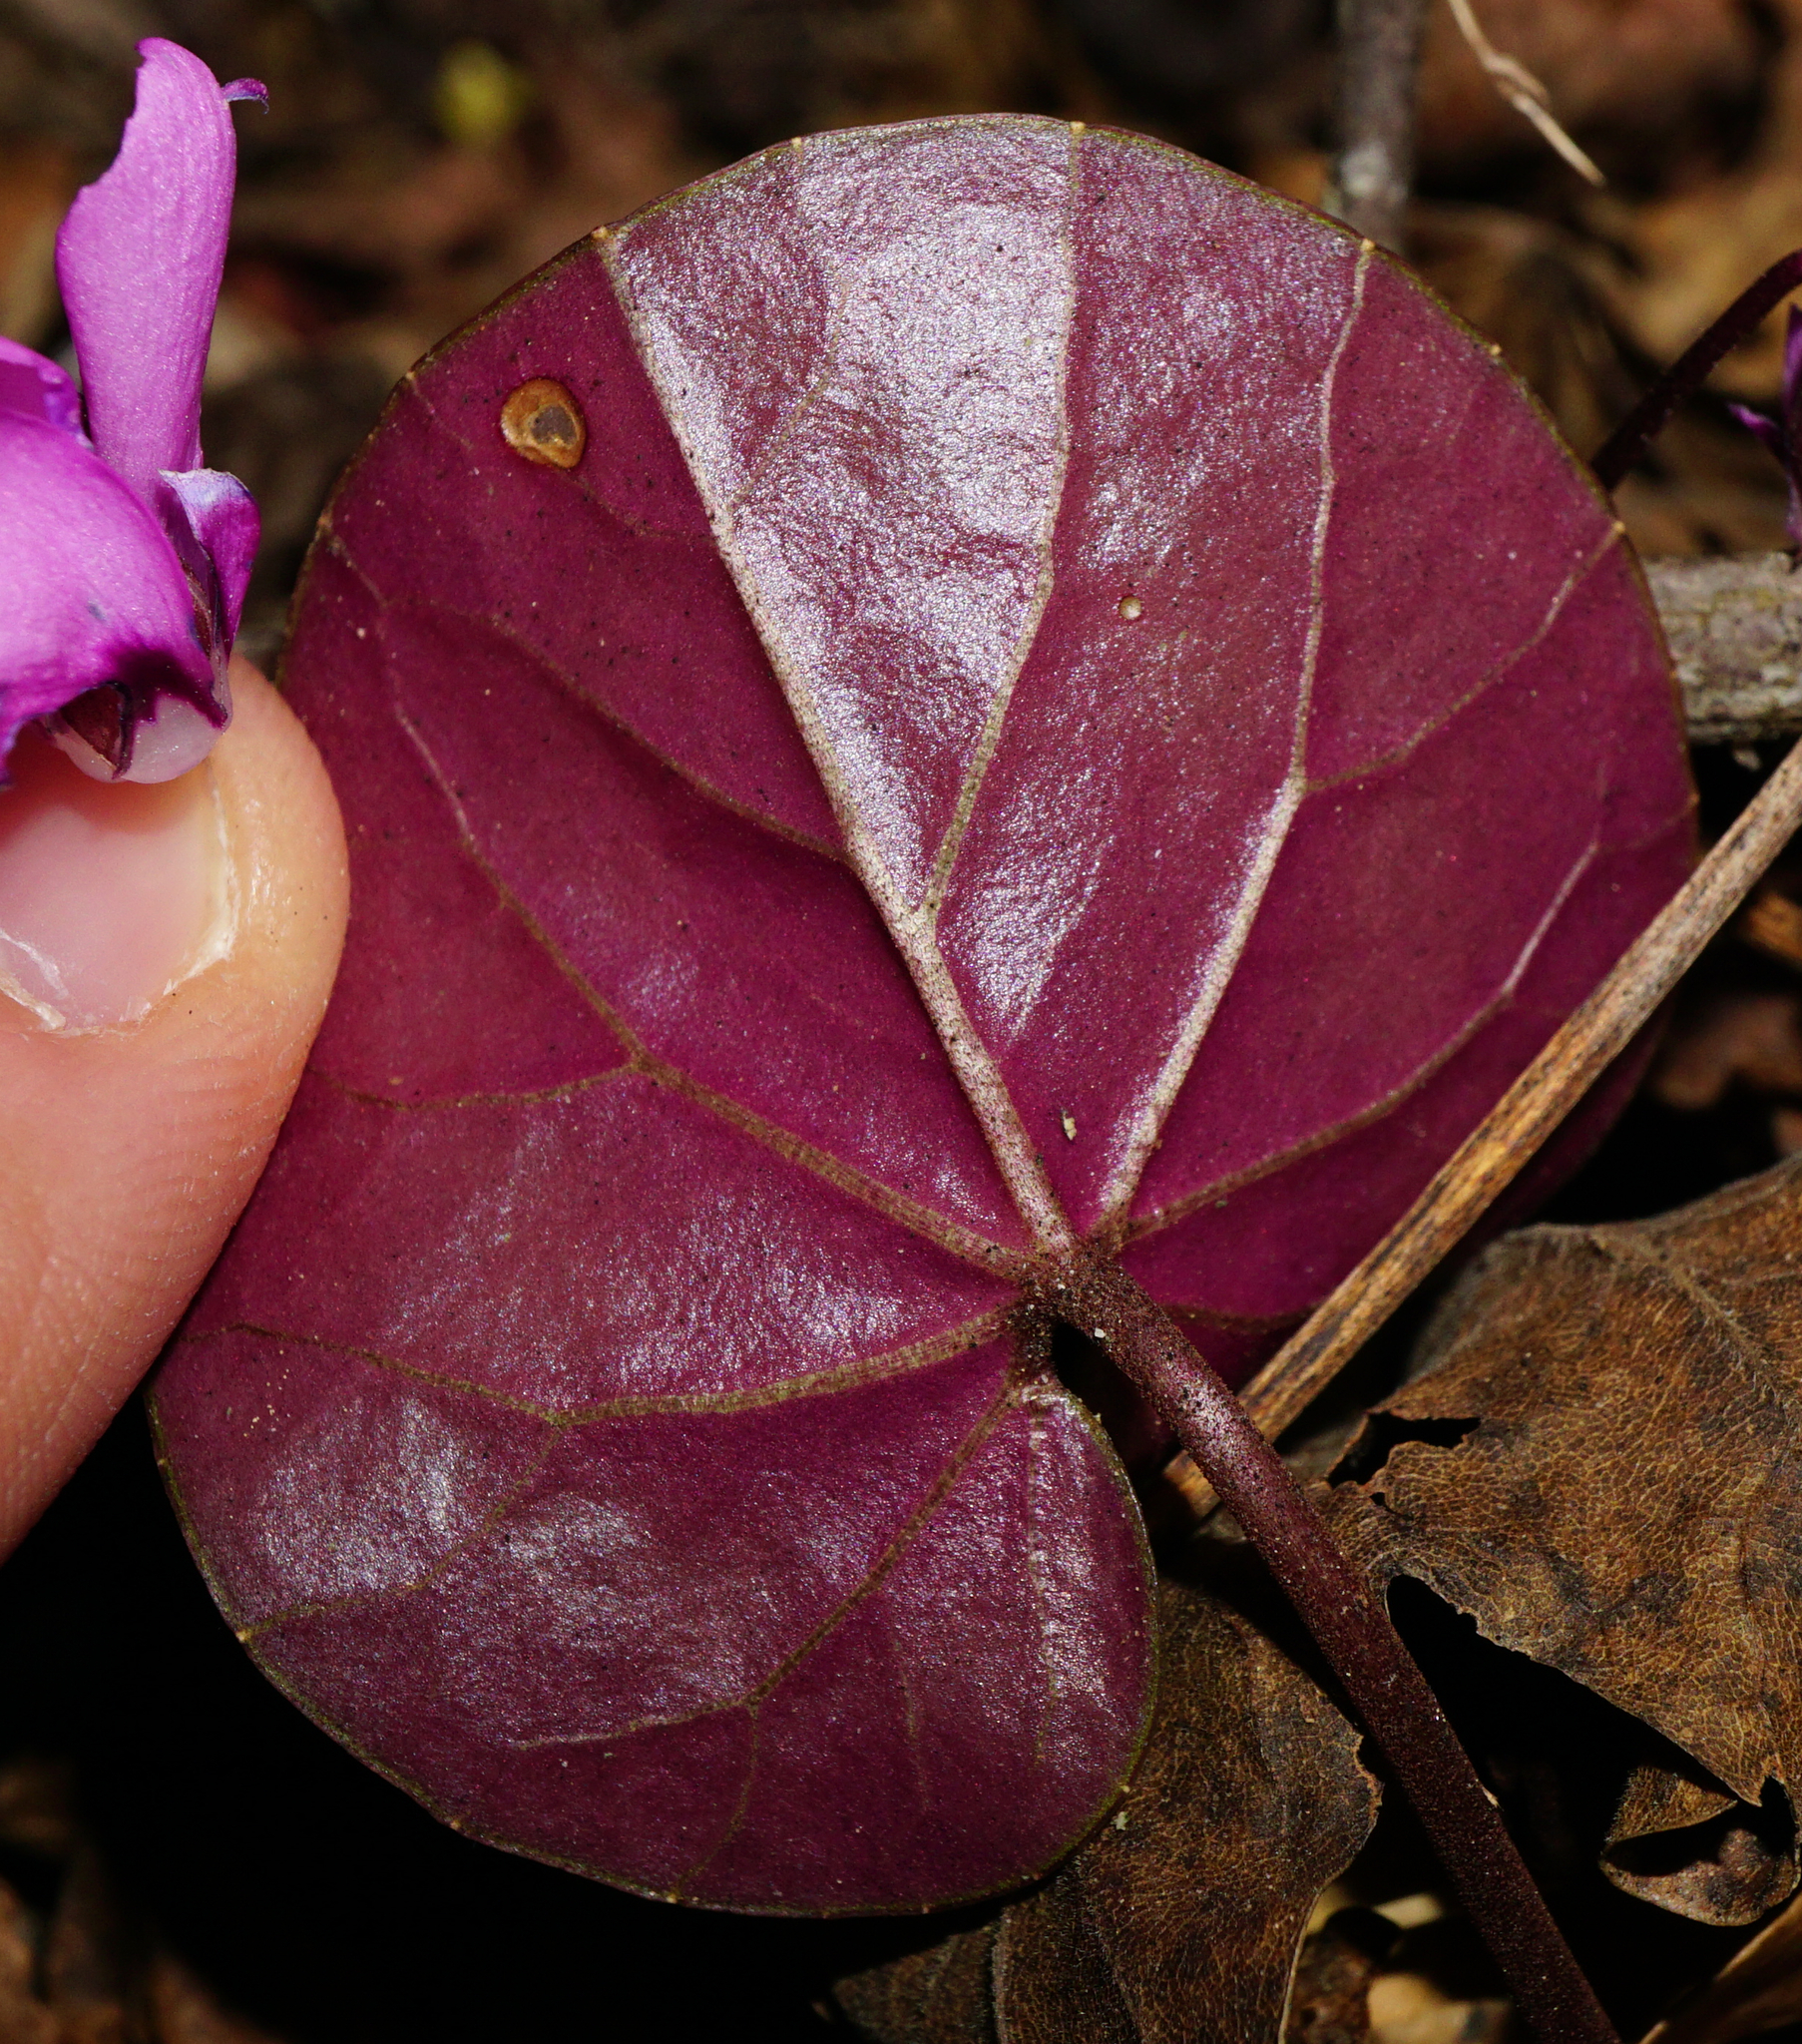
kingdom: Plantae
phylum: Tracheophyta
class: Magnoliopsida
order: Ericales
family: Primulaceae
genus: Cyclamen
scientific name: Cyclamen coum
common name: Eastern sowbread
